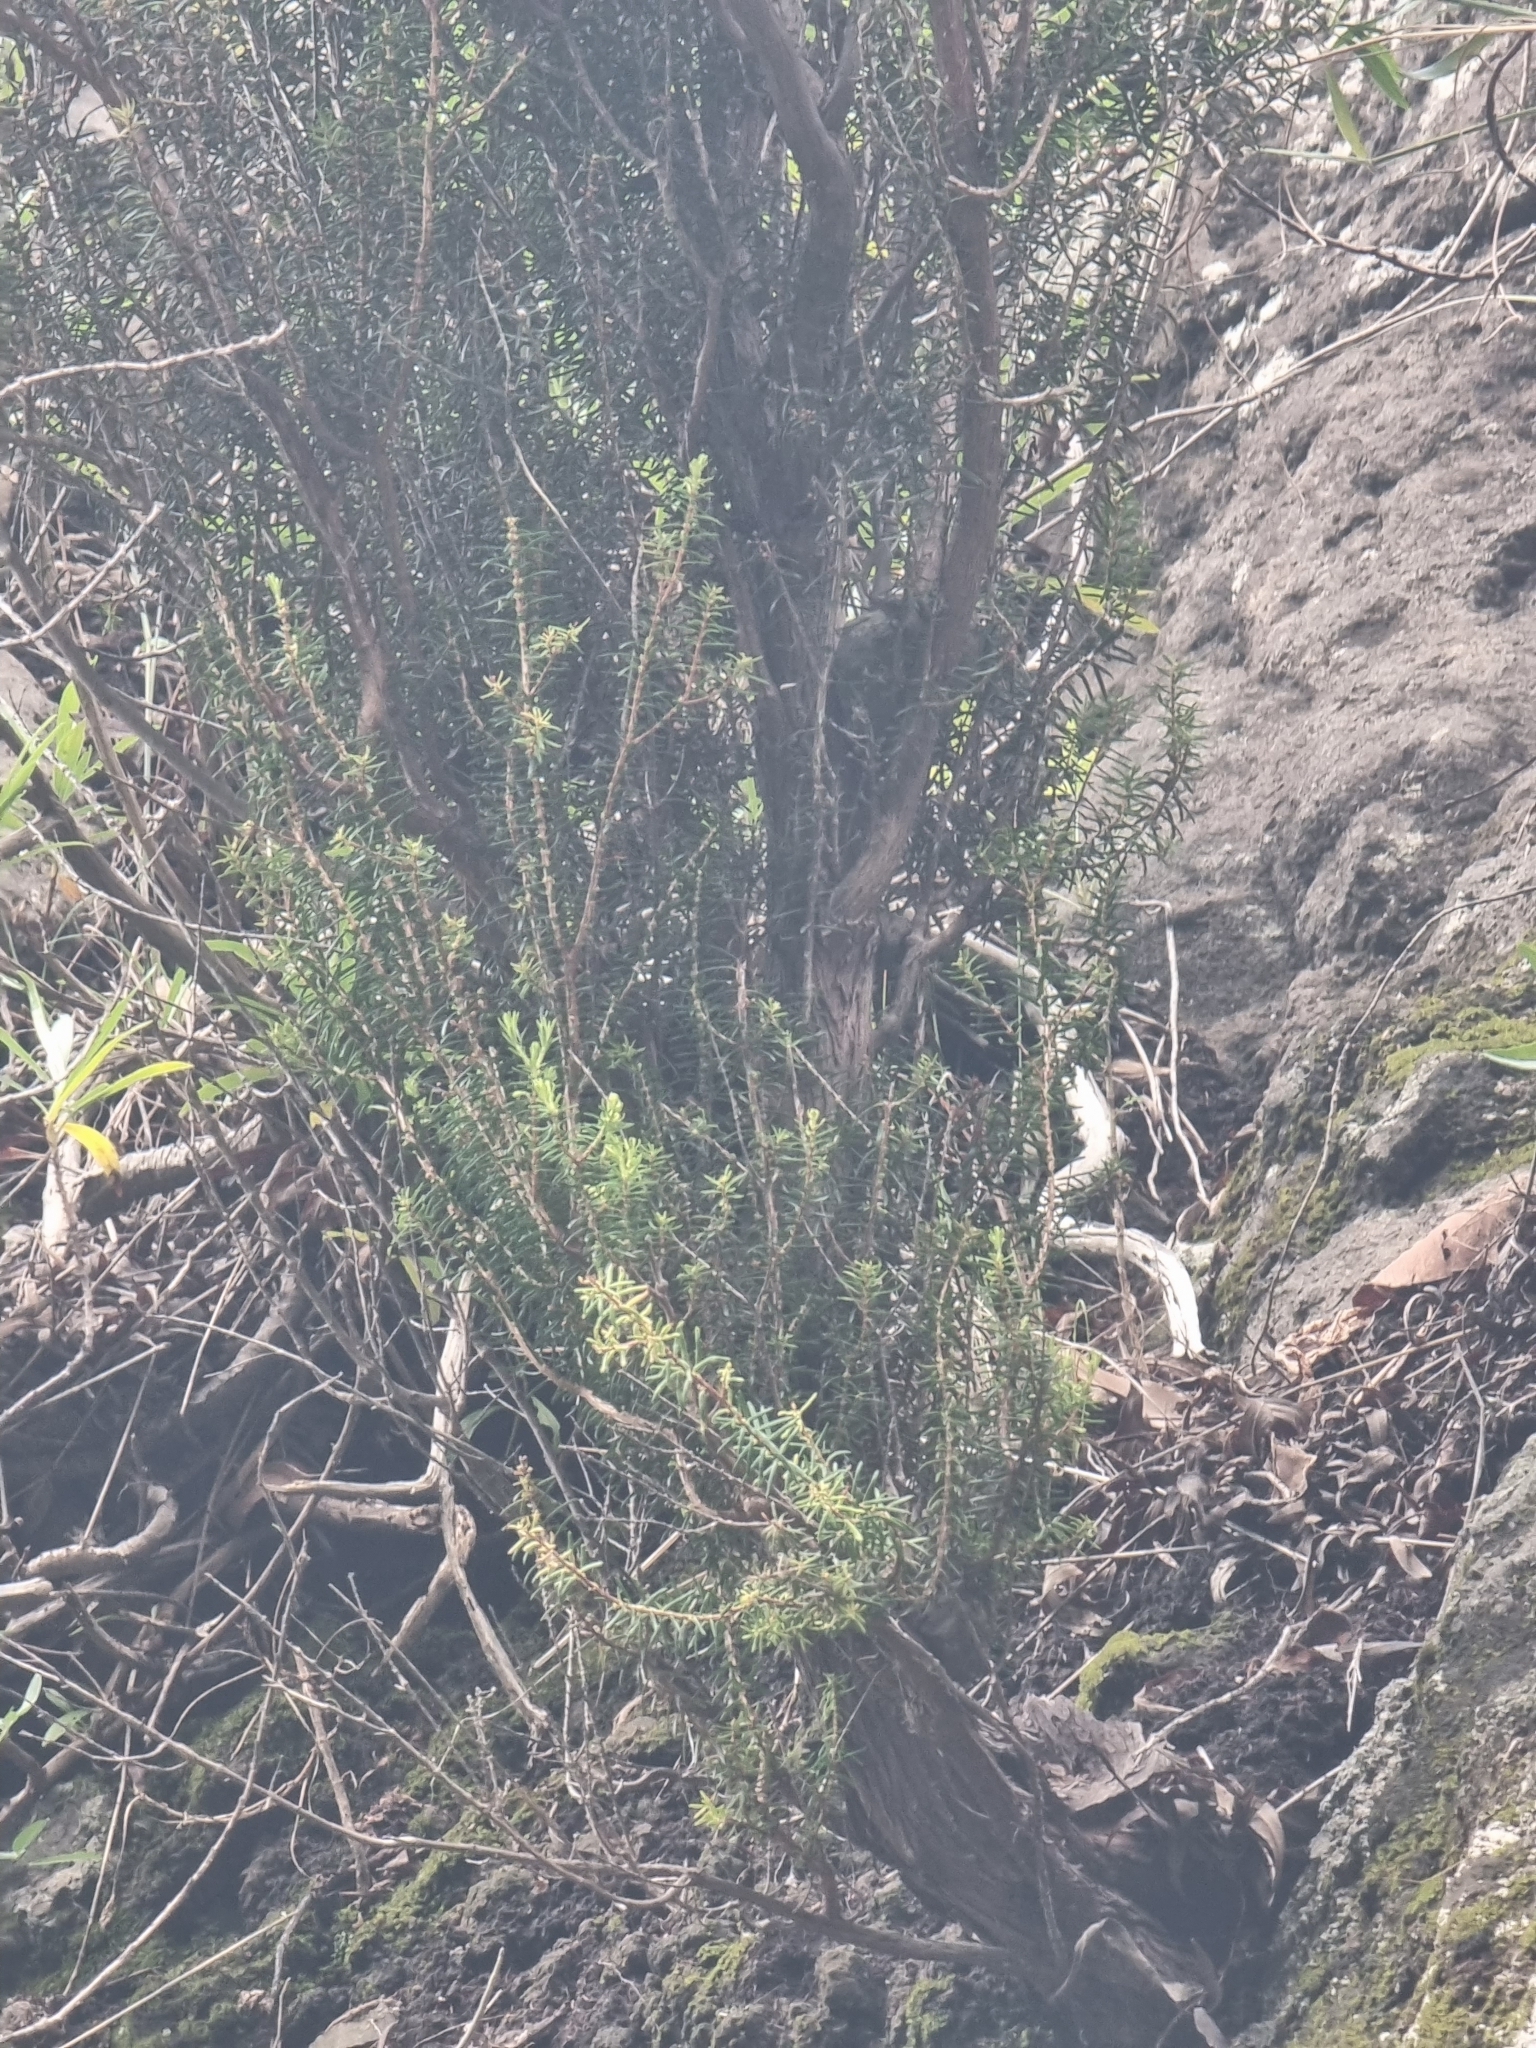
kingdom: Plantae
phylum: Tracheophyta
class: Magnoliopsida
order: Ericales
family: Ericaceae
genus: Erica
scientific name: Erica platycodon
